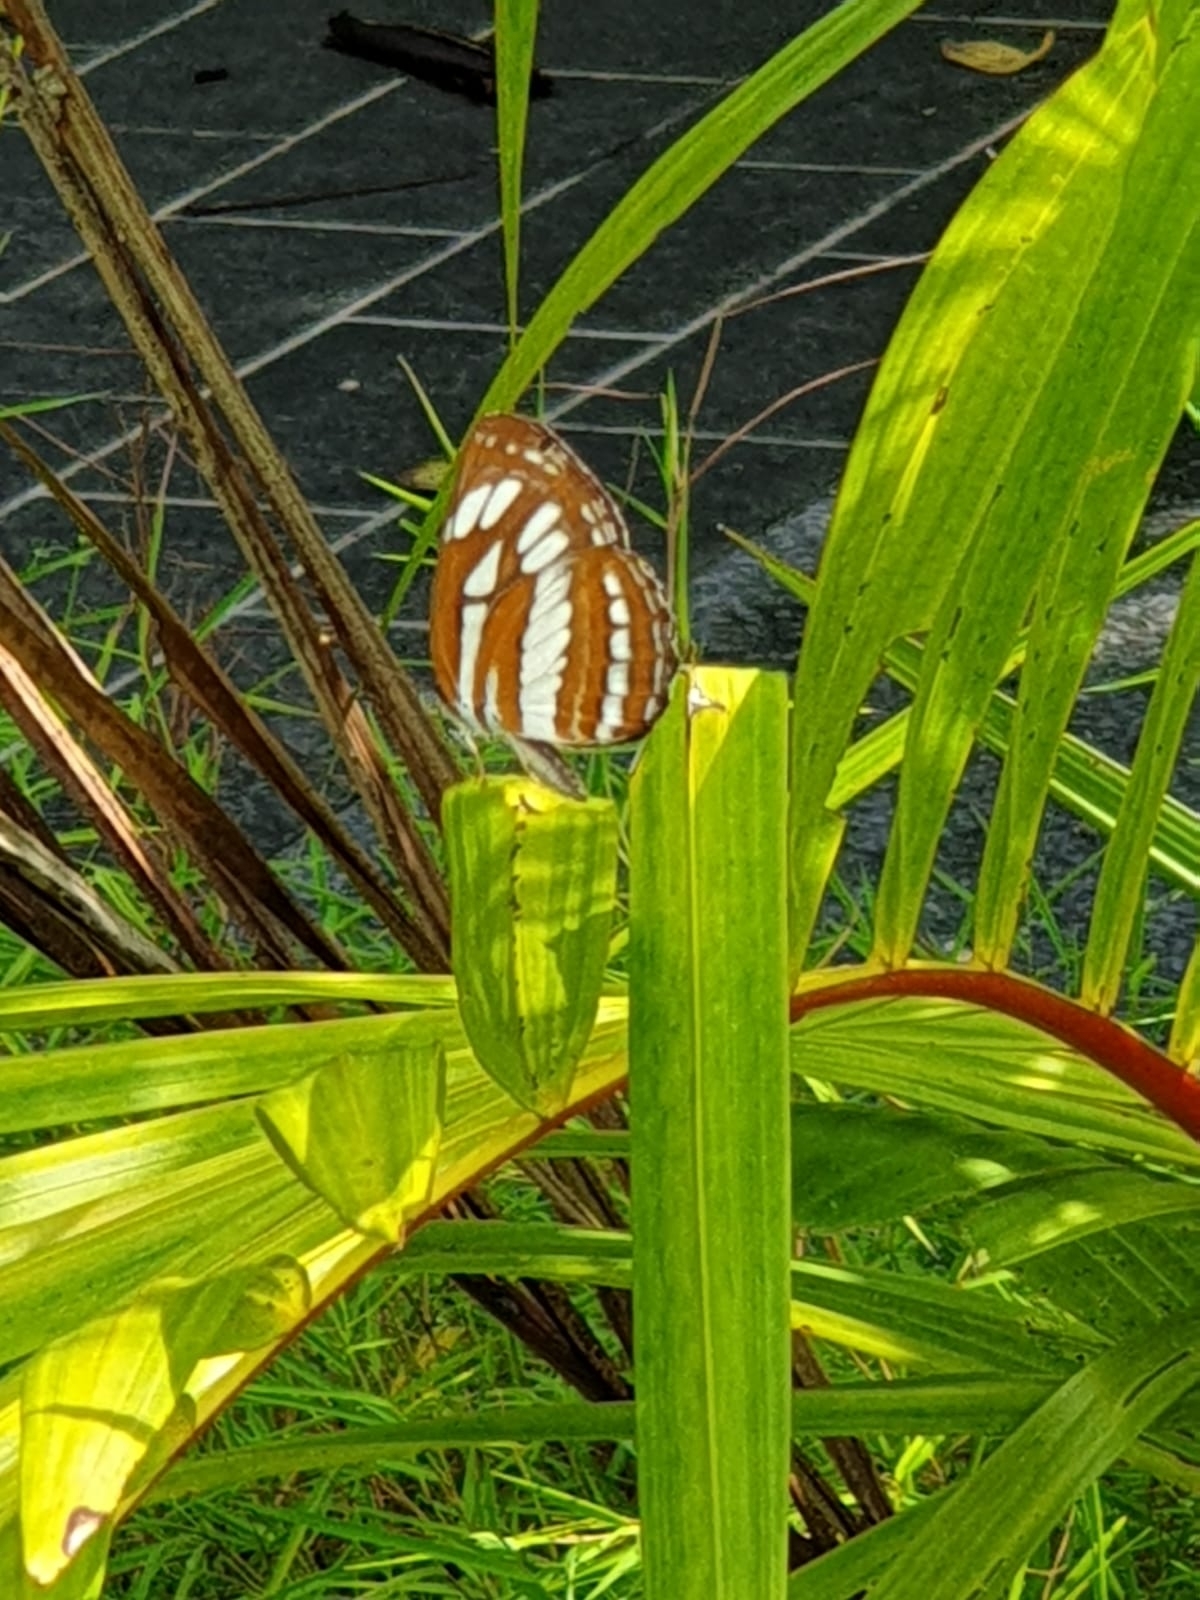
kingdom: Animalia
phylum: Arthropoda
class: Insecta
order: Lepidoptera
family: Nymphalidae
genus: Neptis
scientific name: Neptis hylas
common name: Common sailer
